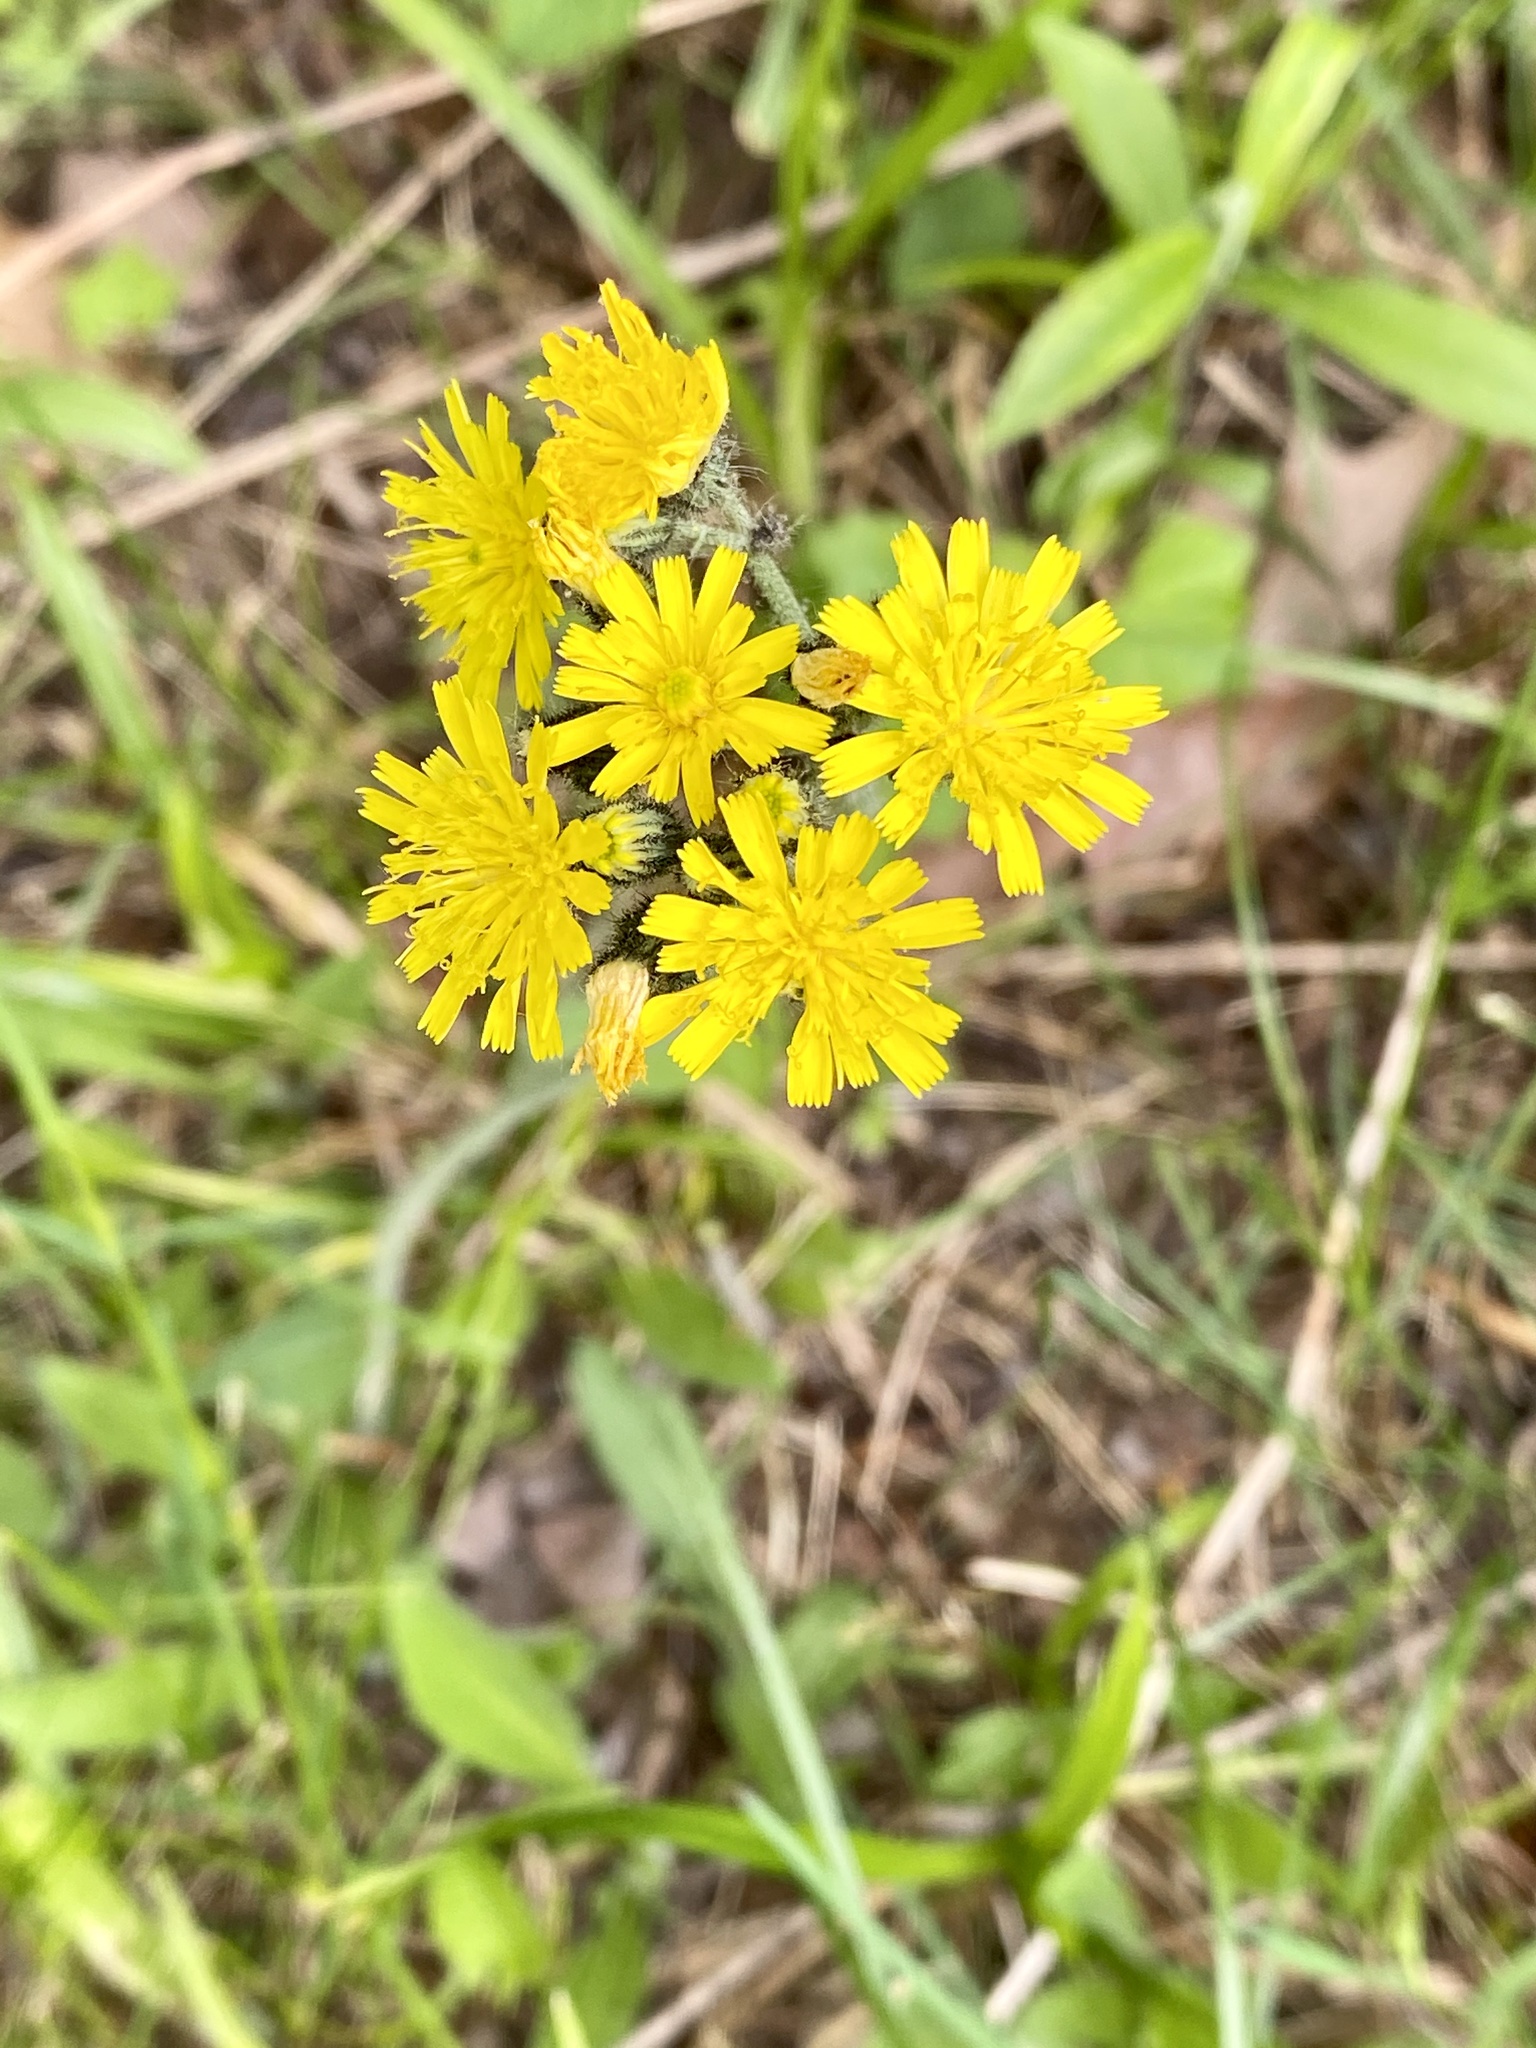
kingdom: Plantae
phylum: Tracheophyta
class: Magnoliopsida
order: Asterales
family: Asteraceae
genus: Pilosella
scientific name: Pilosella caespitosa
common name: Yellow fox-and-cubs
